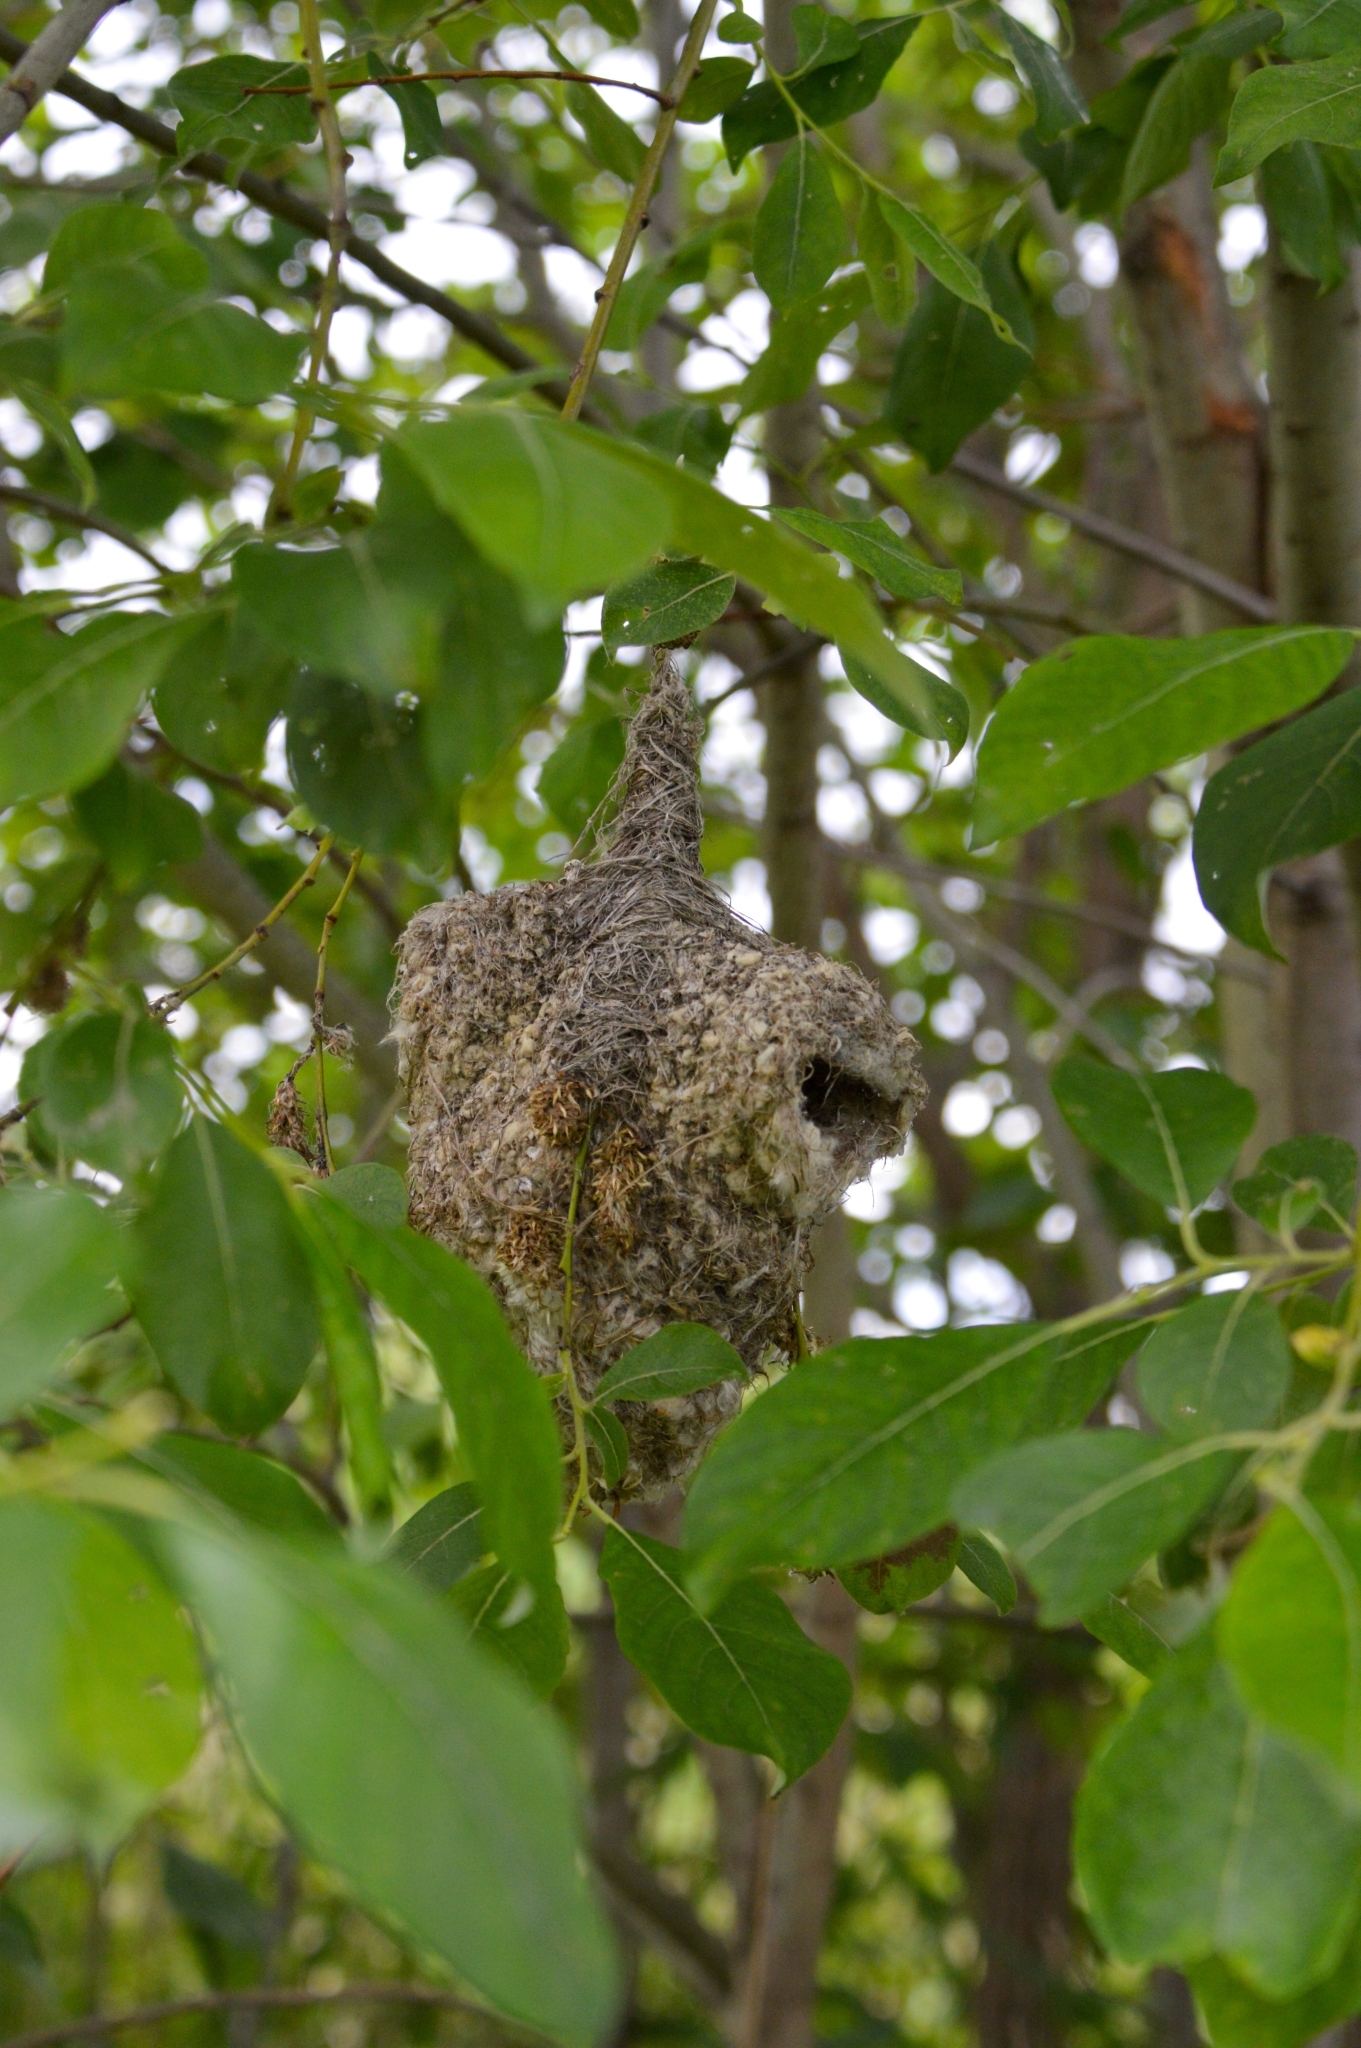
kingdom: Animalia
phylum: Chordata
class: Aves
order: Passeriformes
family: Remizidae
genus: Remiz
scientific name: Remiz pendulinus
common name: Eurasian penduline tit
